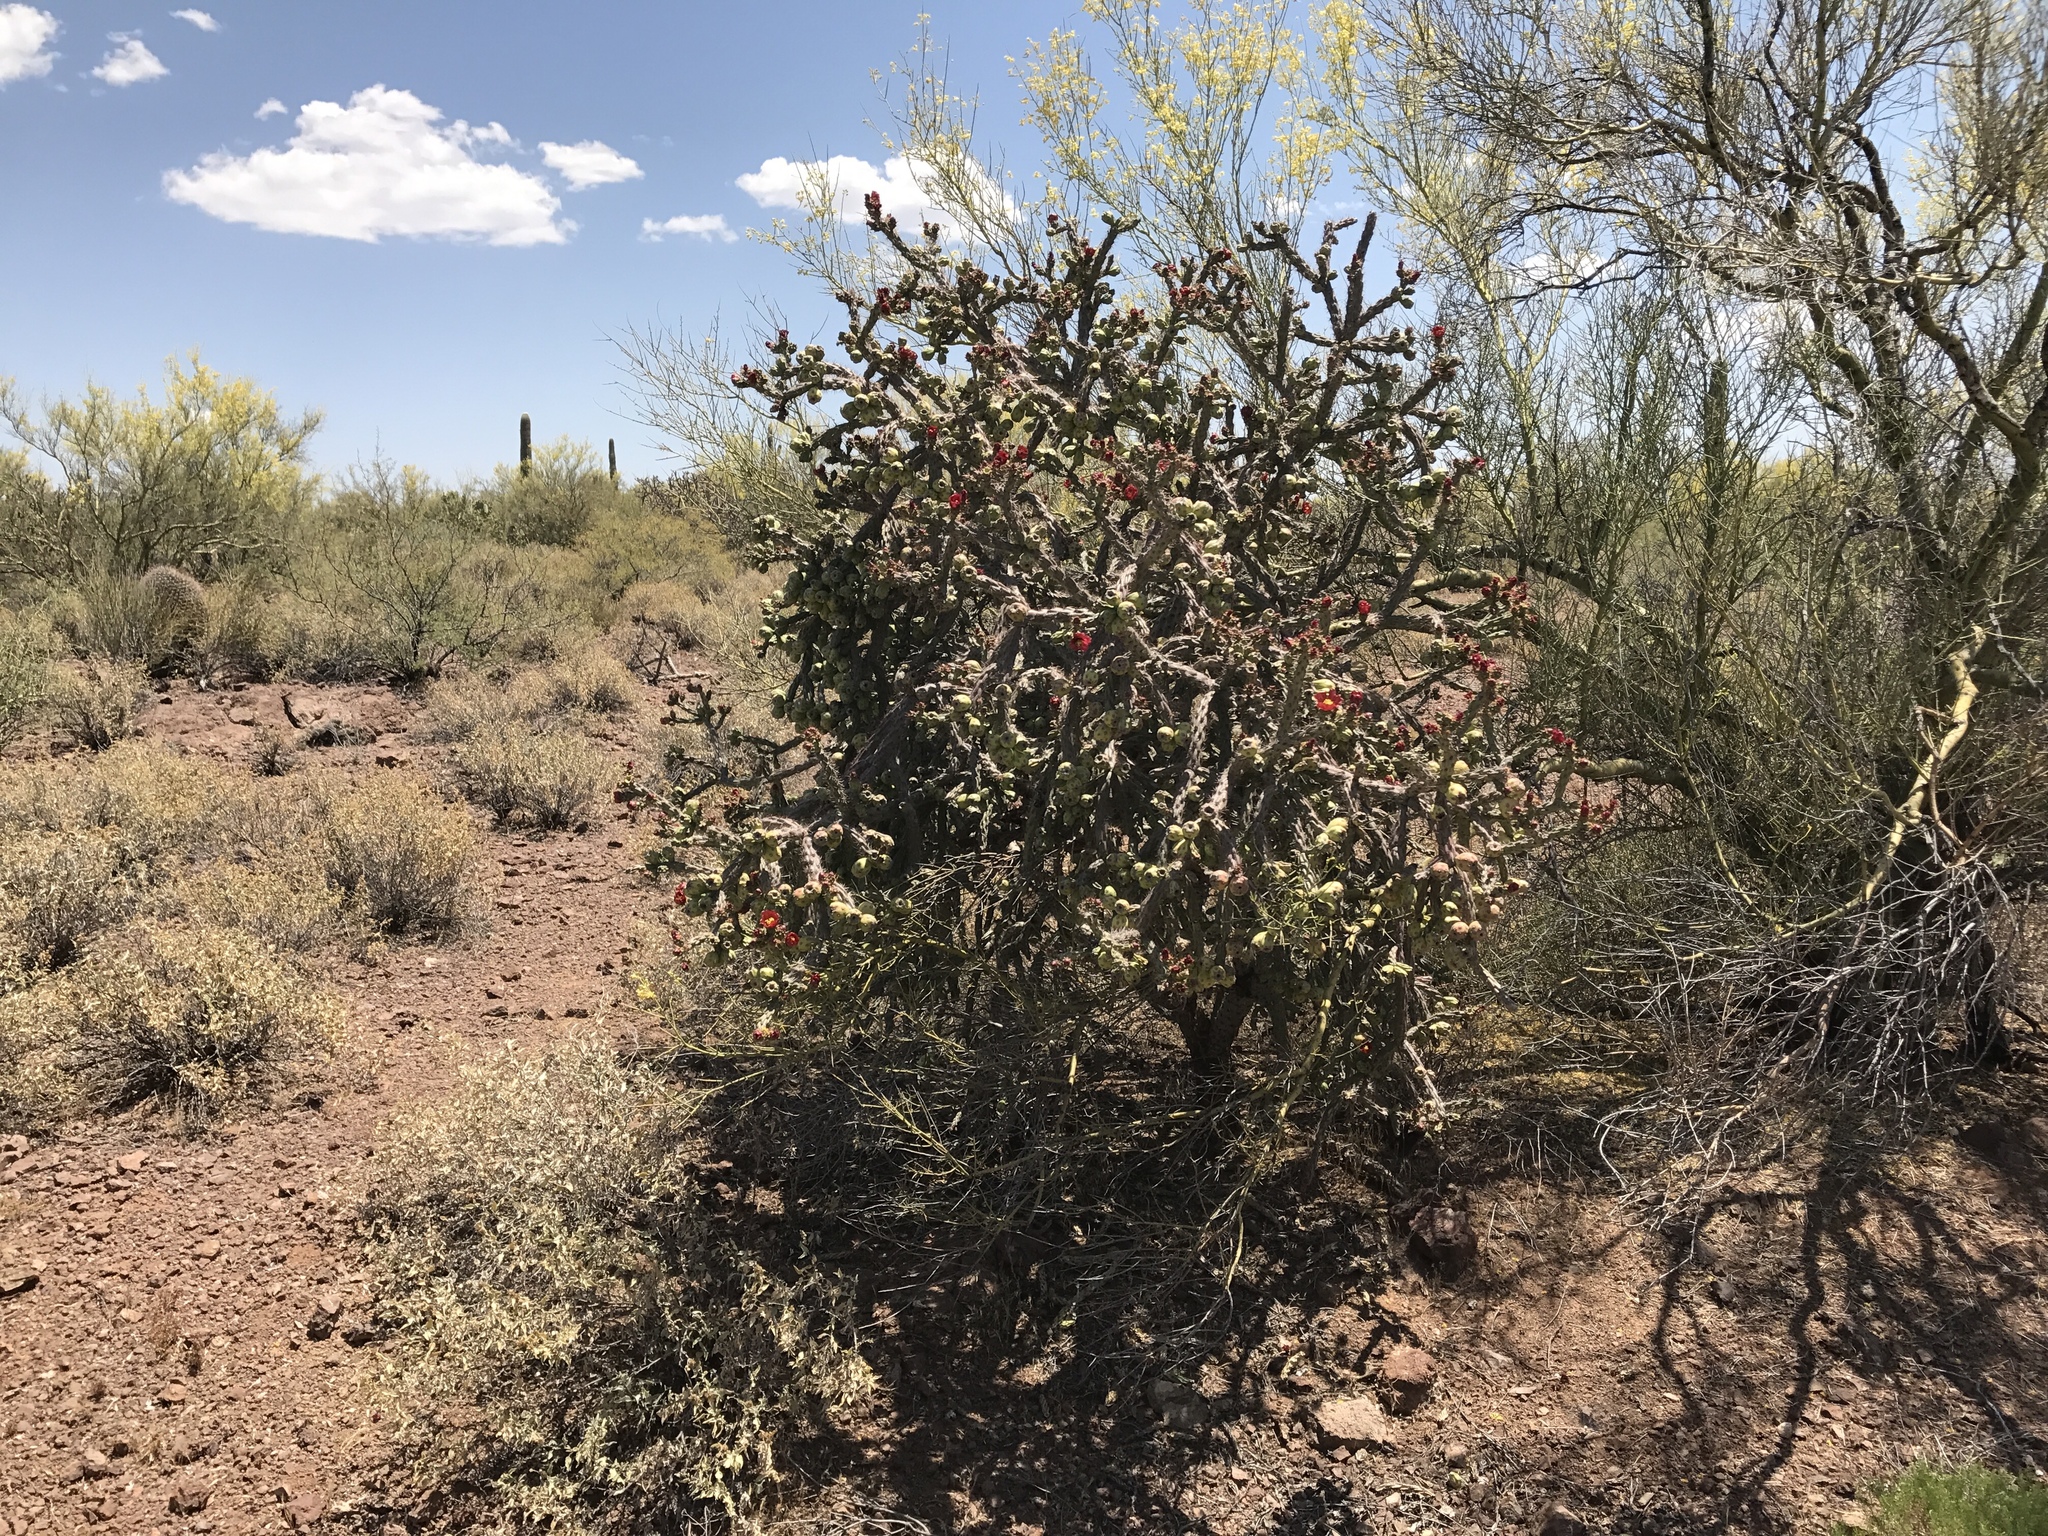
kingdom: Plantae
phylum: Tracheophyta
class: Magnoliopsida
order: Caryophyllales
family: Cactaceae
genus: Cylindropuntia
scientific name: Cylindropuntia thurberi
